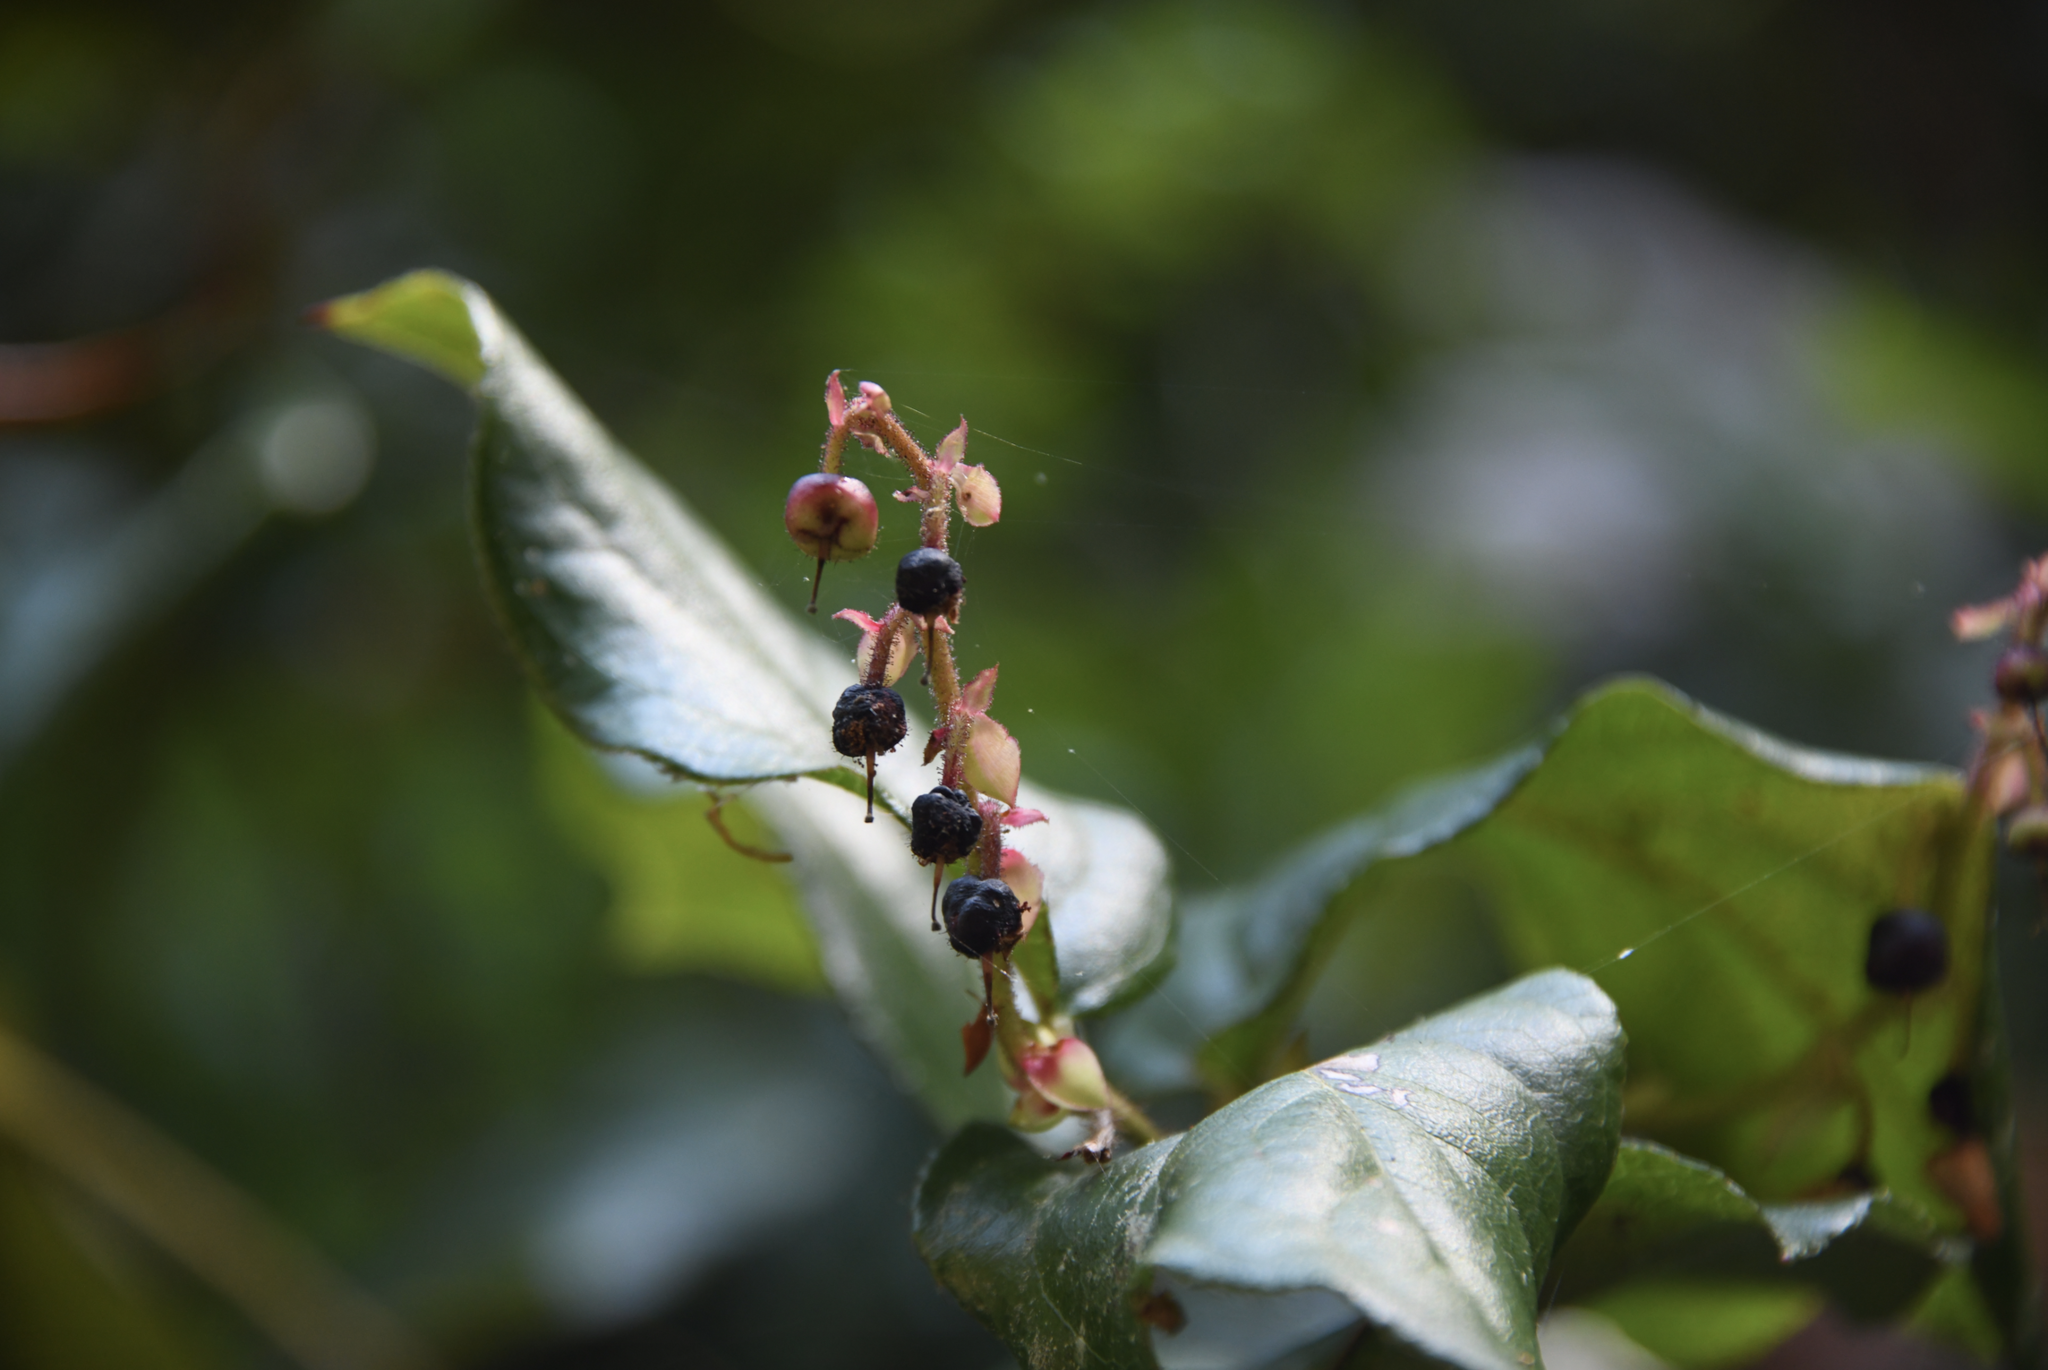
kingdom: Plantae
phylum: Tracheophyta
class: Magnoliopsida
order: Ericales
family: Ericaceae
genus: Gaultheria
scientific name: Gaultheria shallon
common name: Shallon
